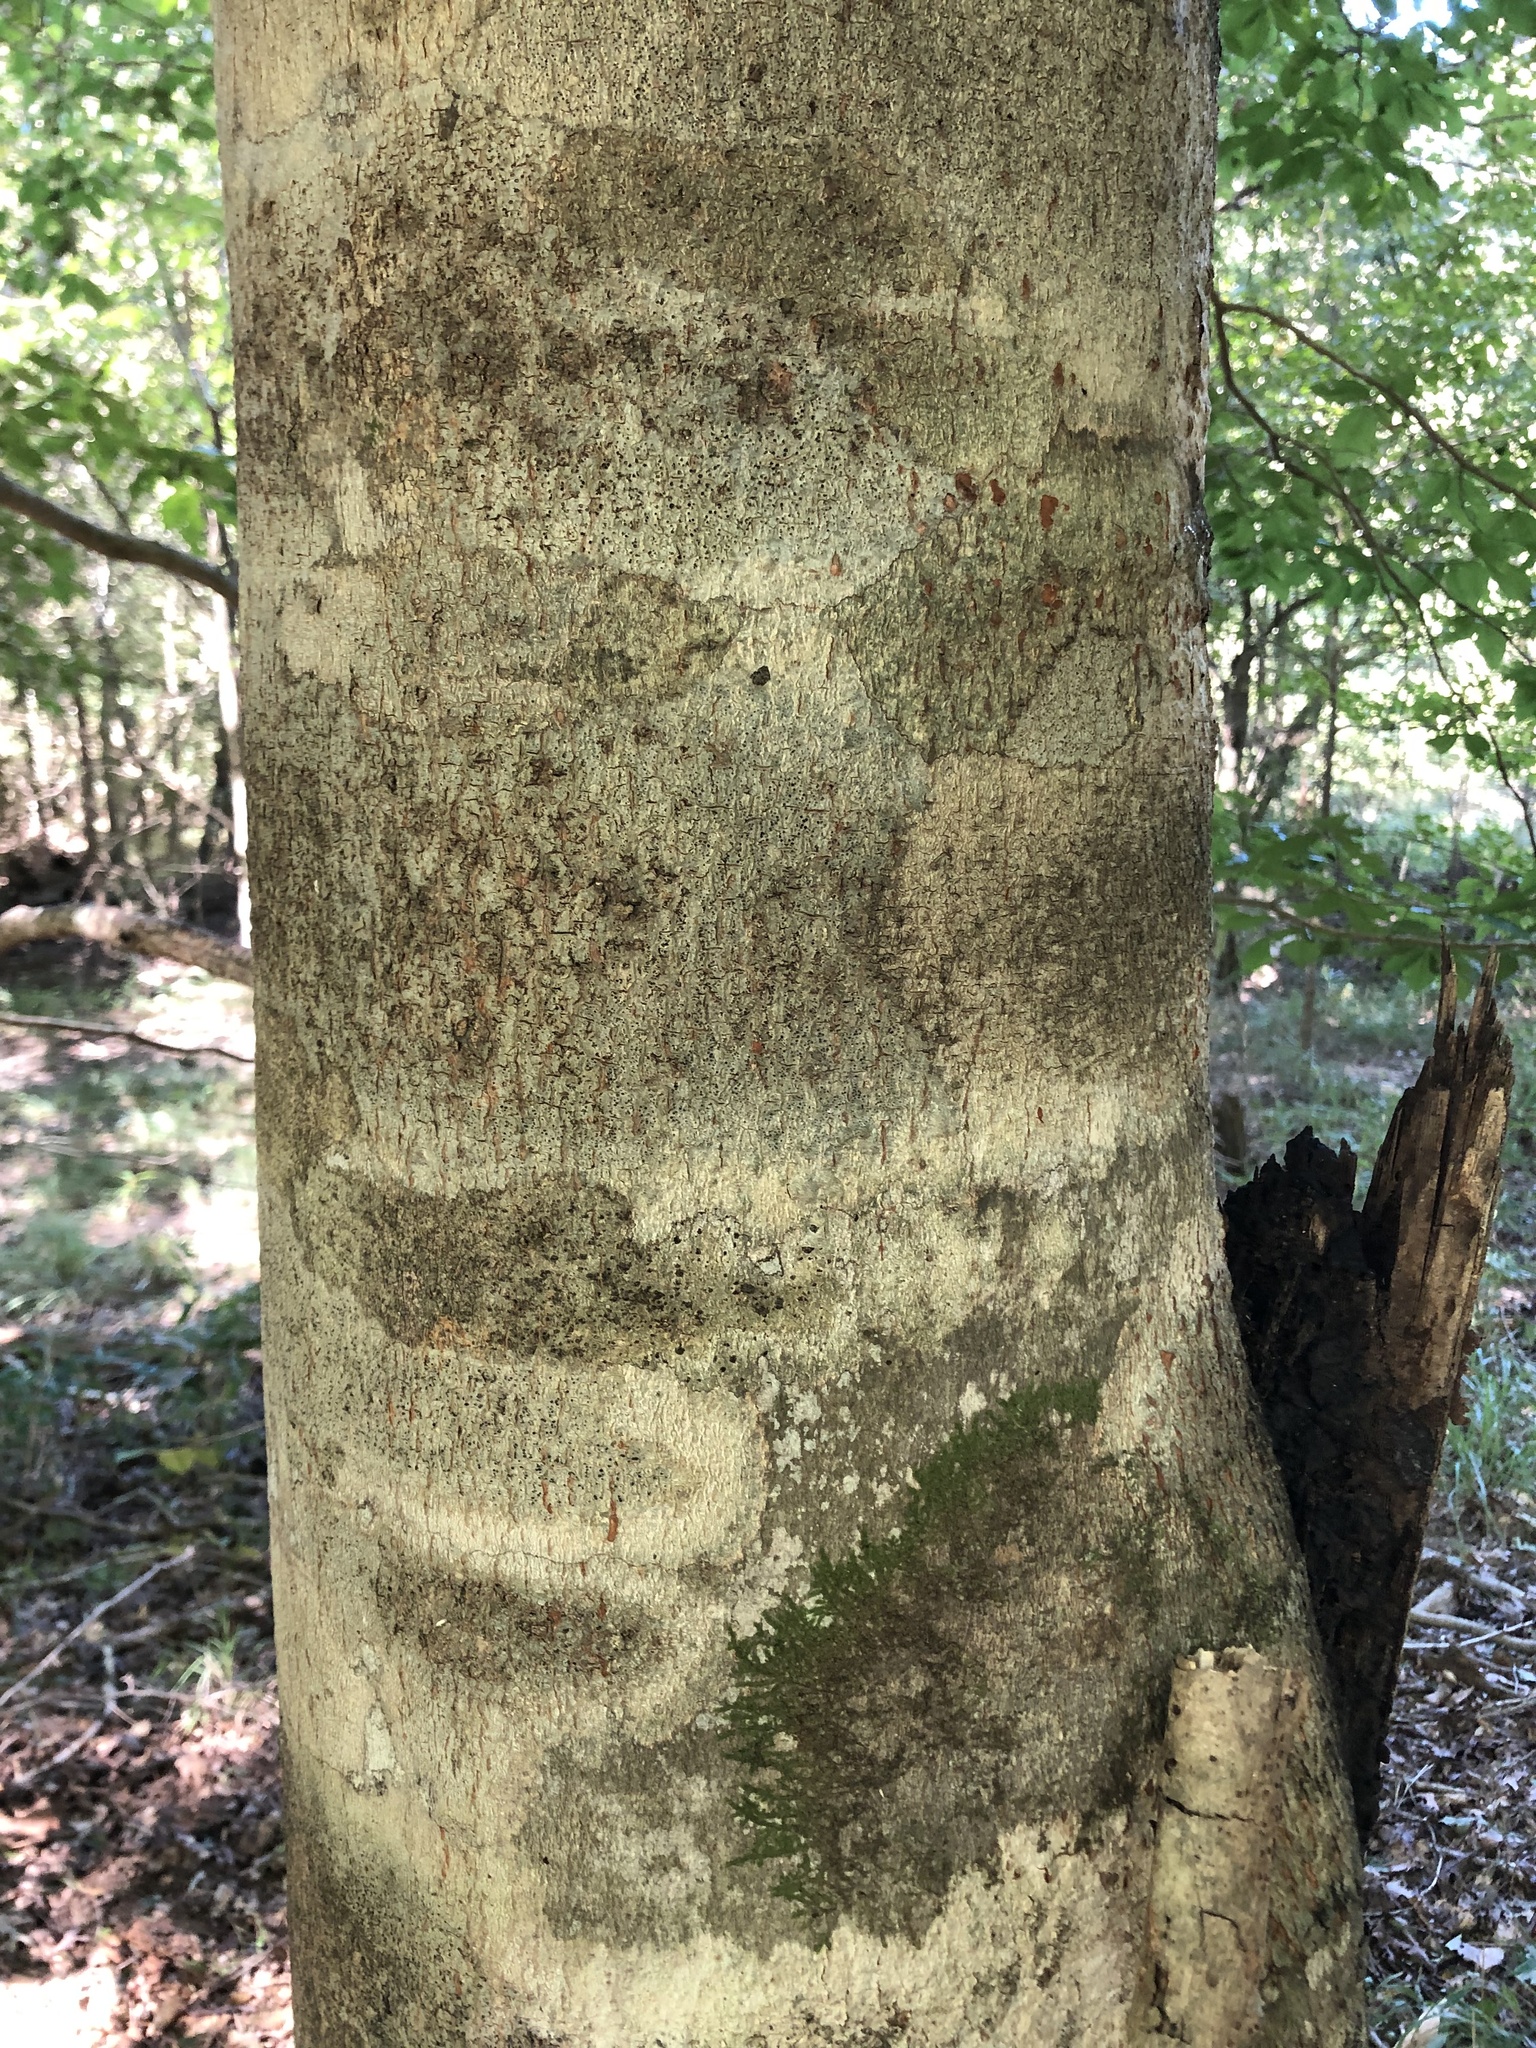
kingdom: Plantae
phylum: Tracheophyta
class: Magnoliopsida
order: Fagales
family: Fagaceae
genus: Fagus
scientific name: Fagus grandifolia
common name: American beech
